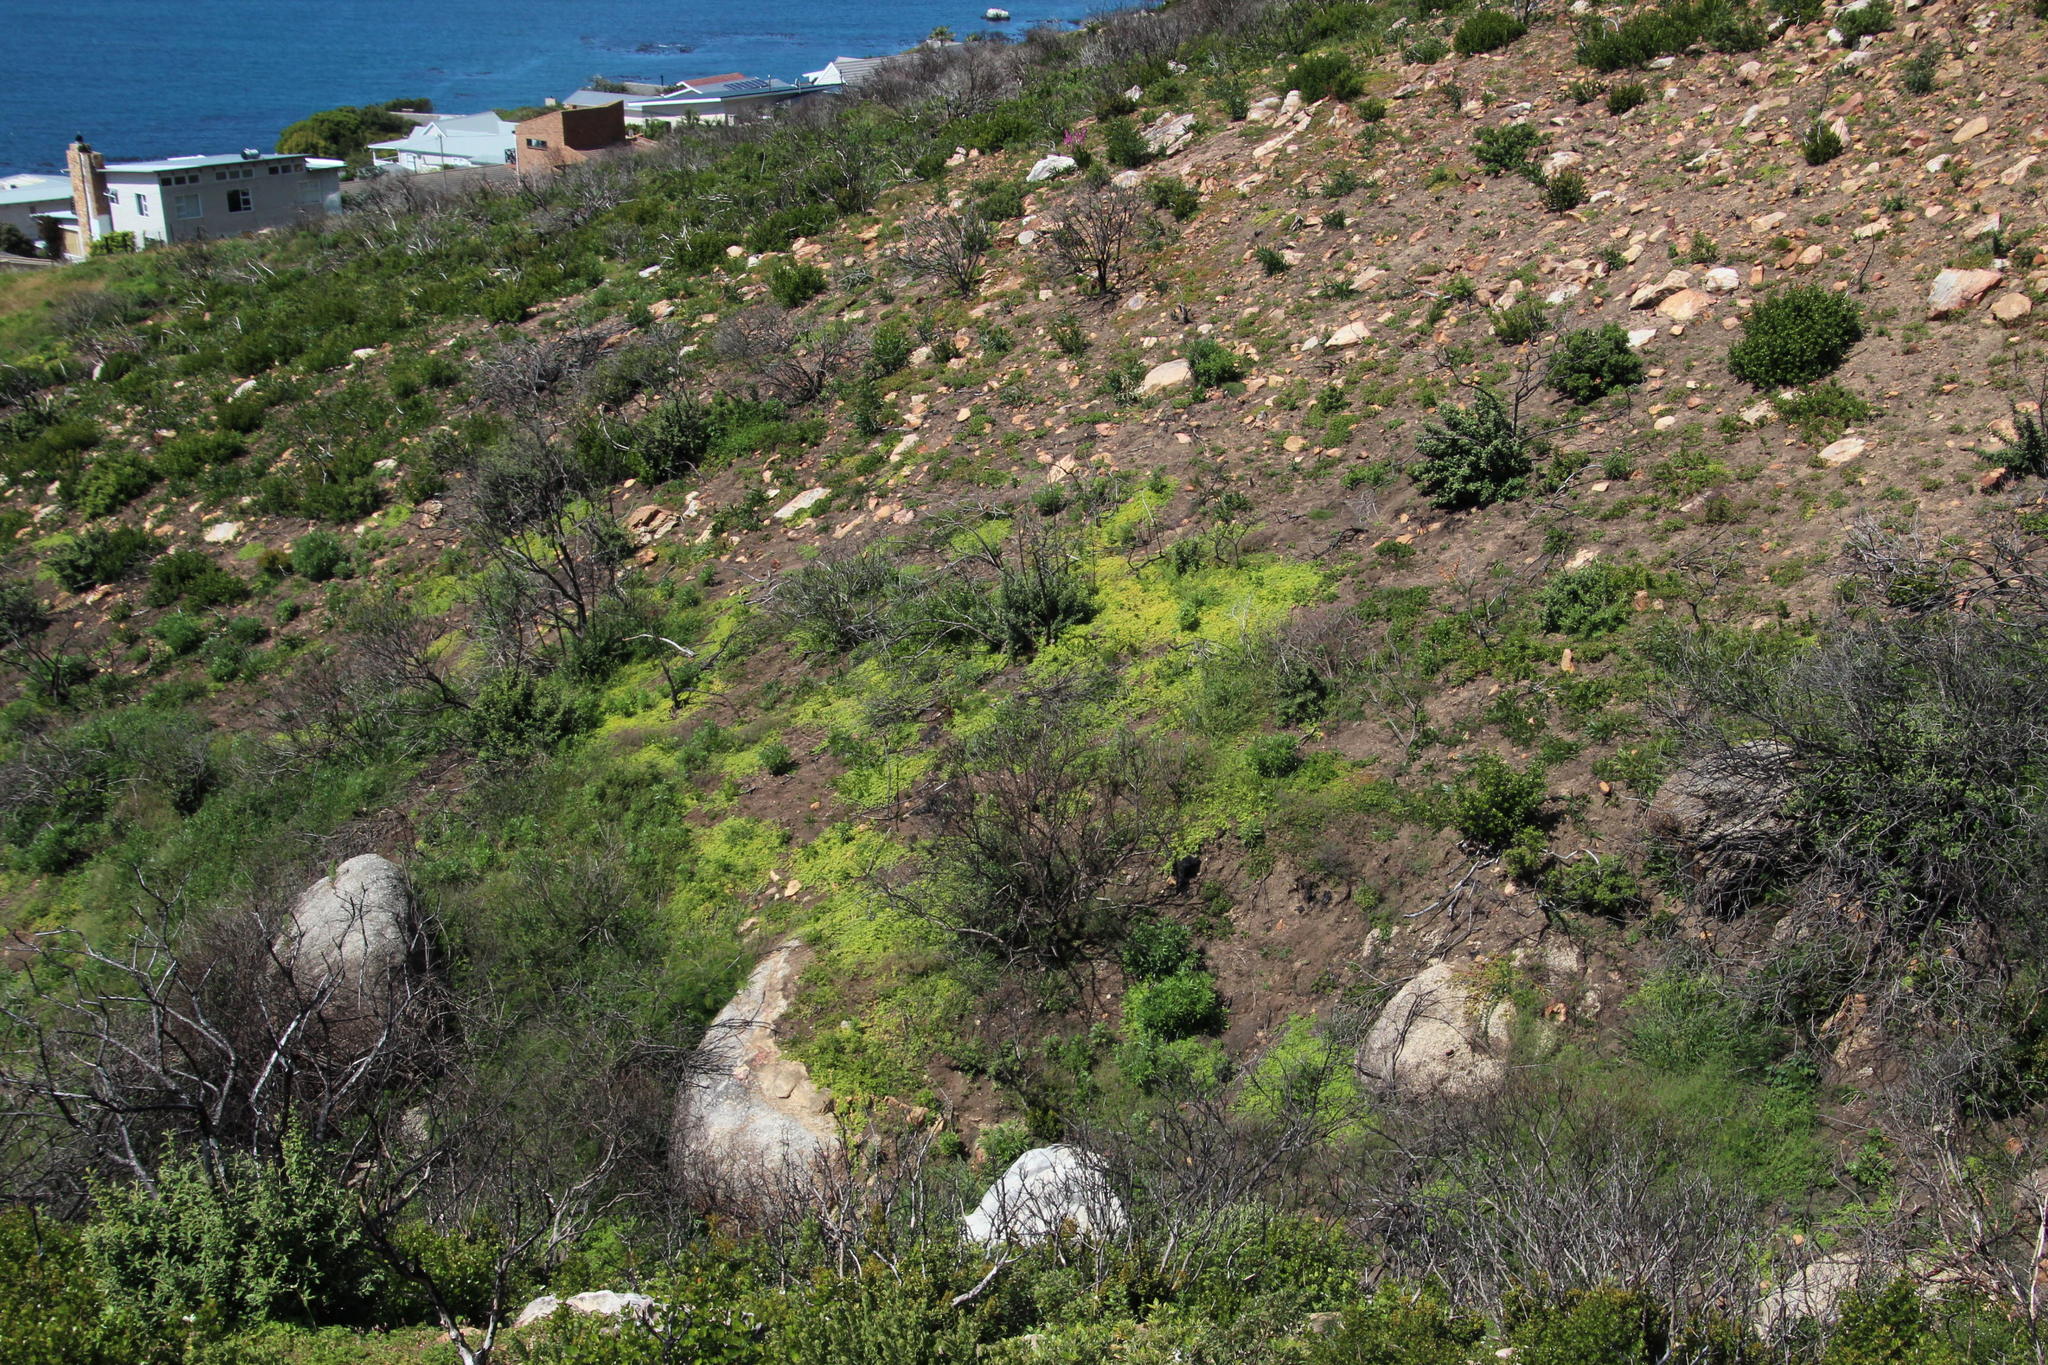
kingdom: Plantae
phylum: Tracheophyta
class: Magnoliopsida
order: Caryophyllales
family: Aizoaceae
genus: Cleretum
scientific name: Cleretum herrei
